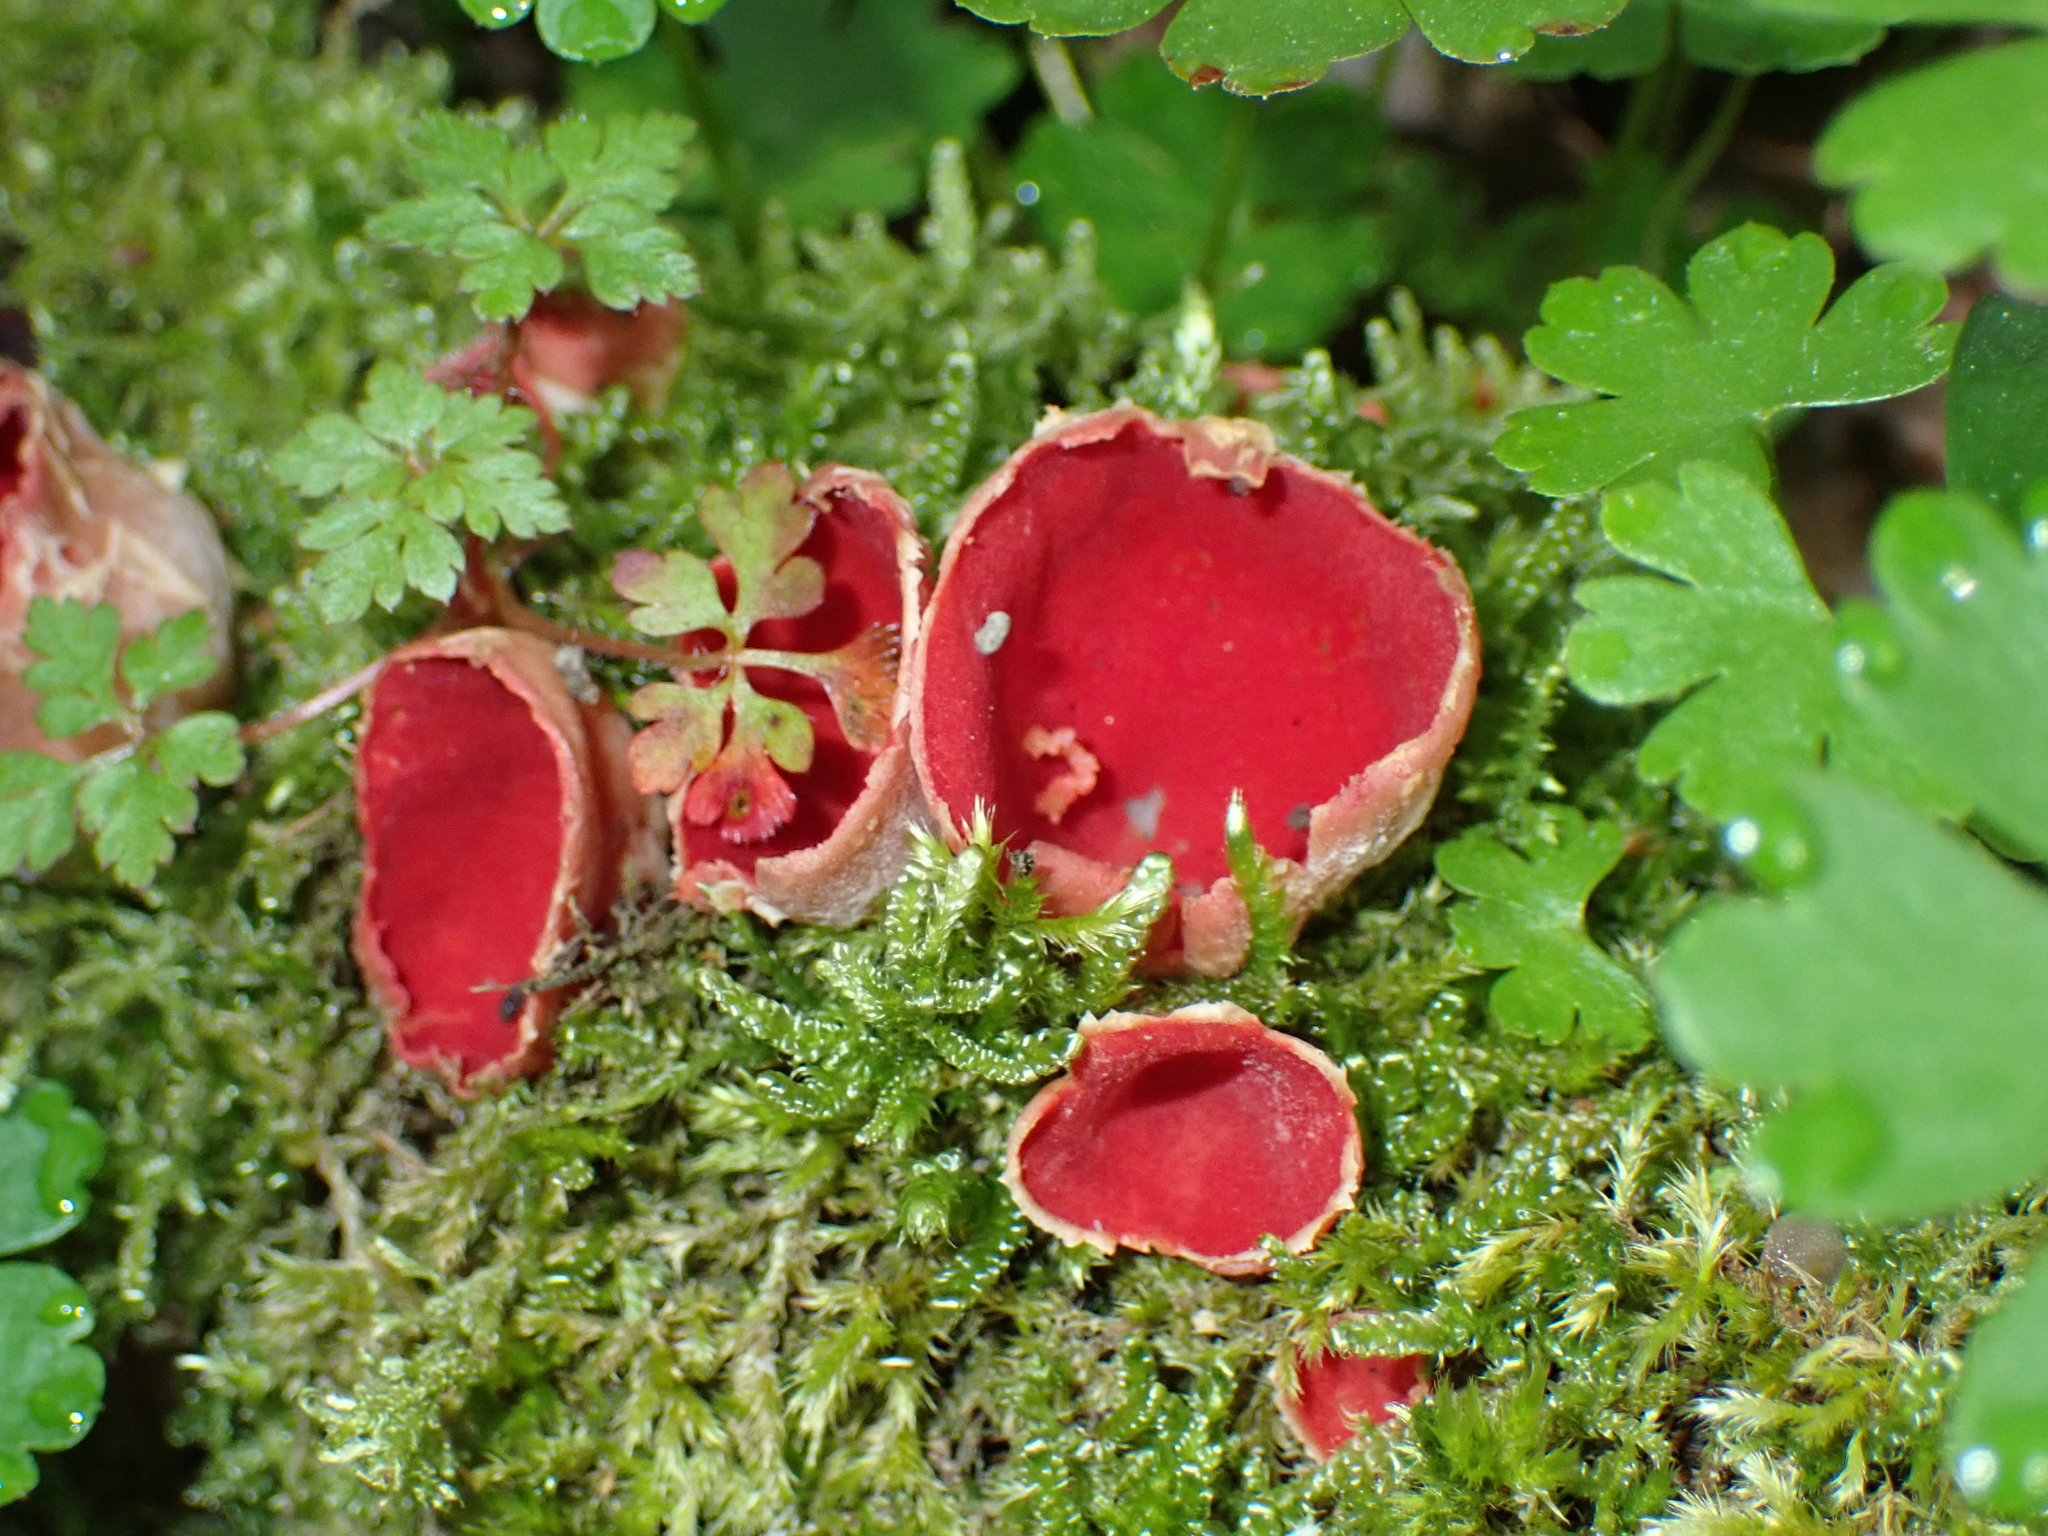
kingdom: Fungi
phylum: Ascomycota
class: Pezizomycetes
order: Pezizales
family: Sarcoscyphaceae
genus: Sarcoscypha
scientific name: Sarcoscypha
